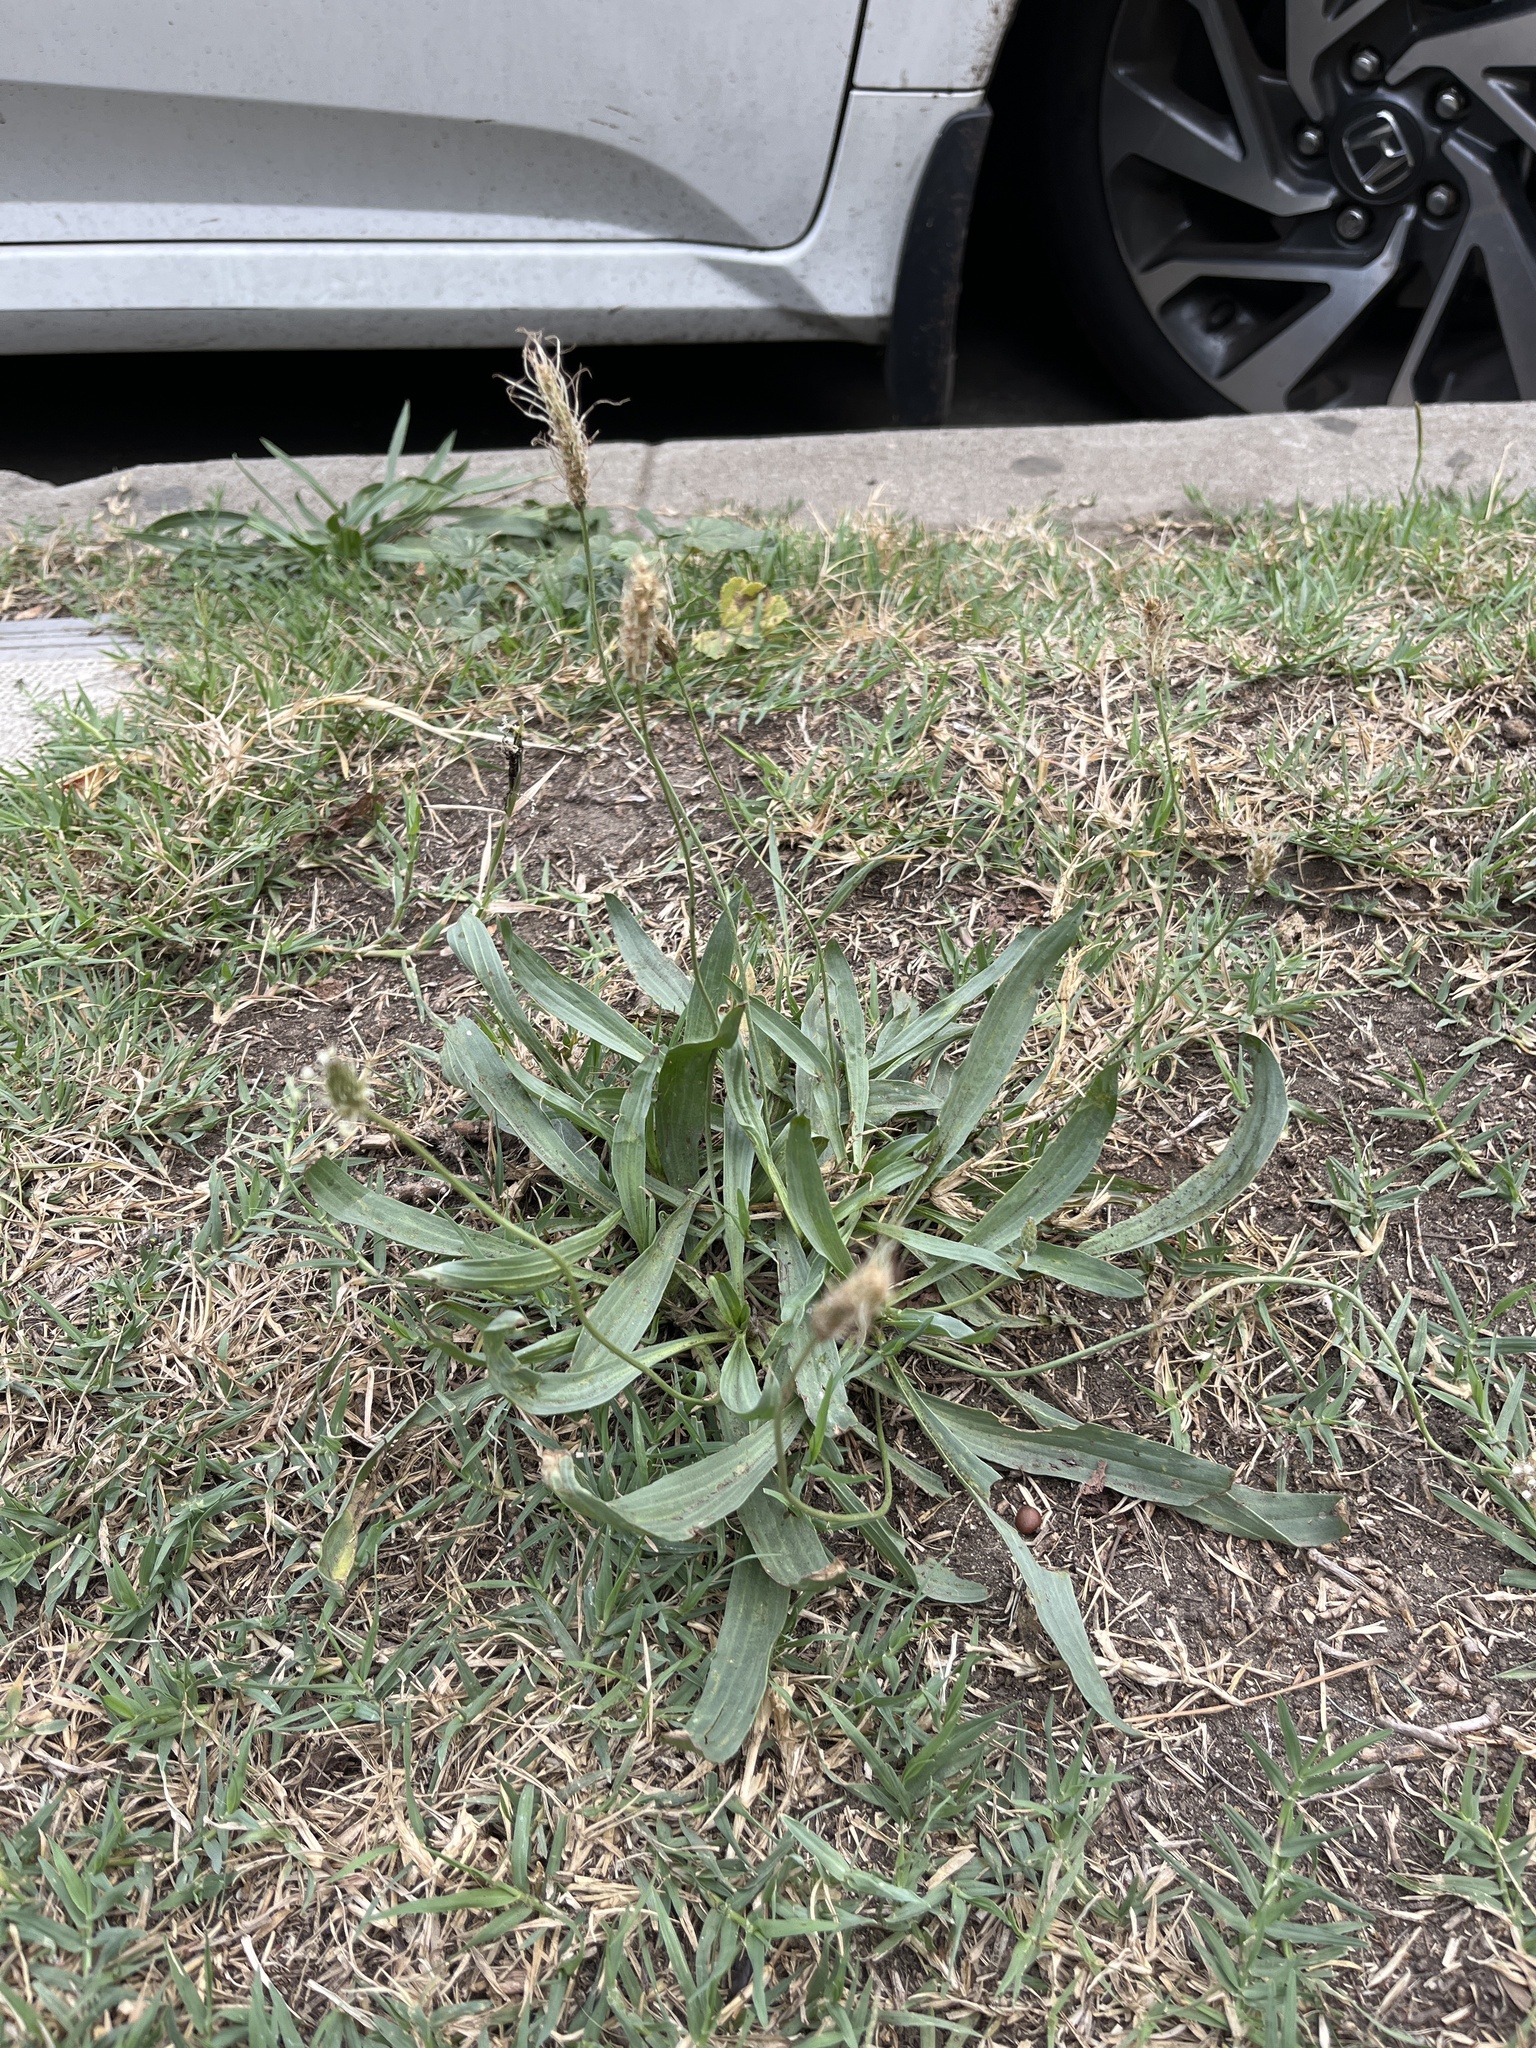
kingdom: Plantae
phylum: Tracheophyta
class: Magnoliopsida
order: Lamiales
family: Plantaginaceae
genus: Plantago
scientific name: Plantago lanceolata
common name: Ribwort plantain
